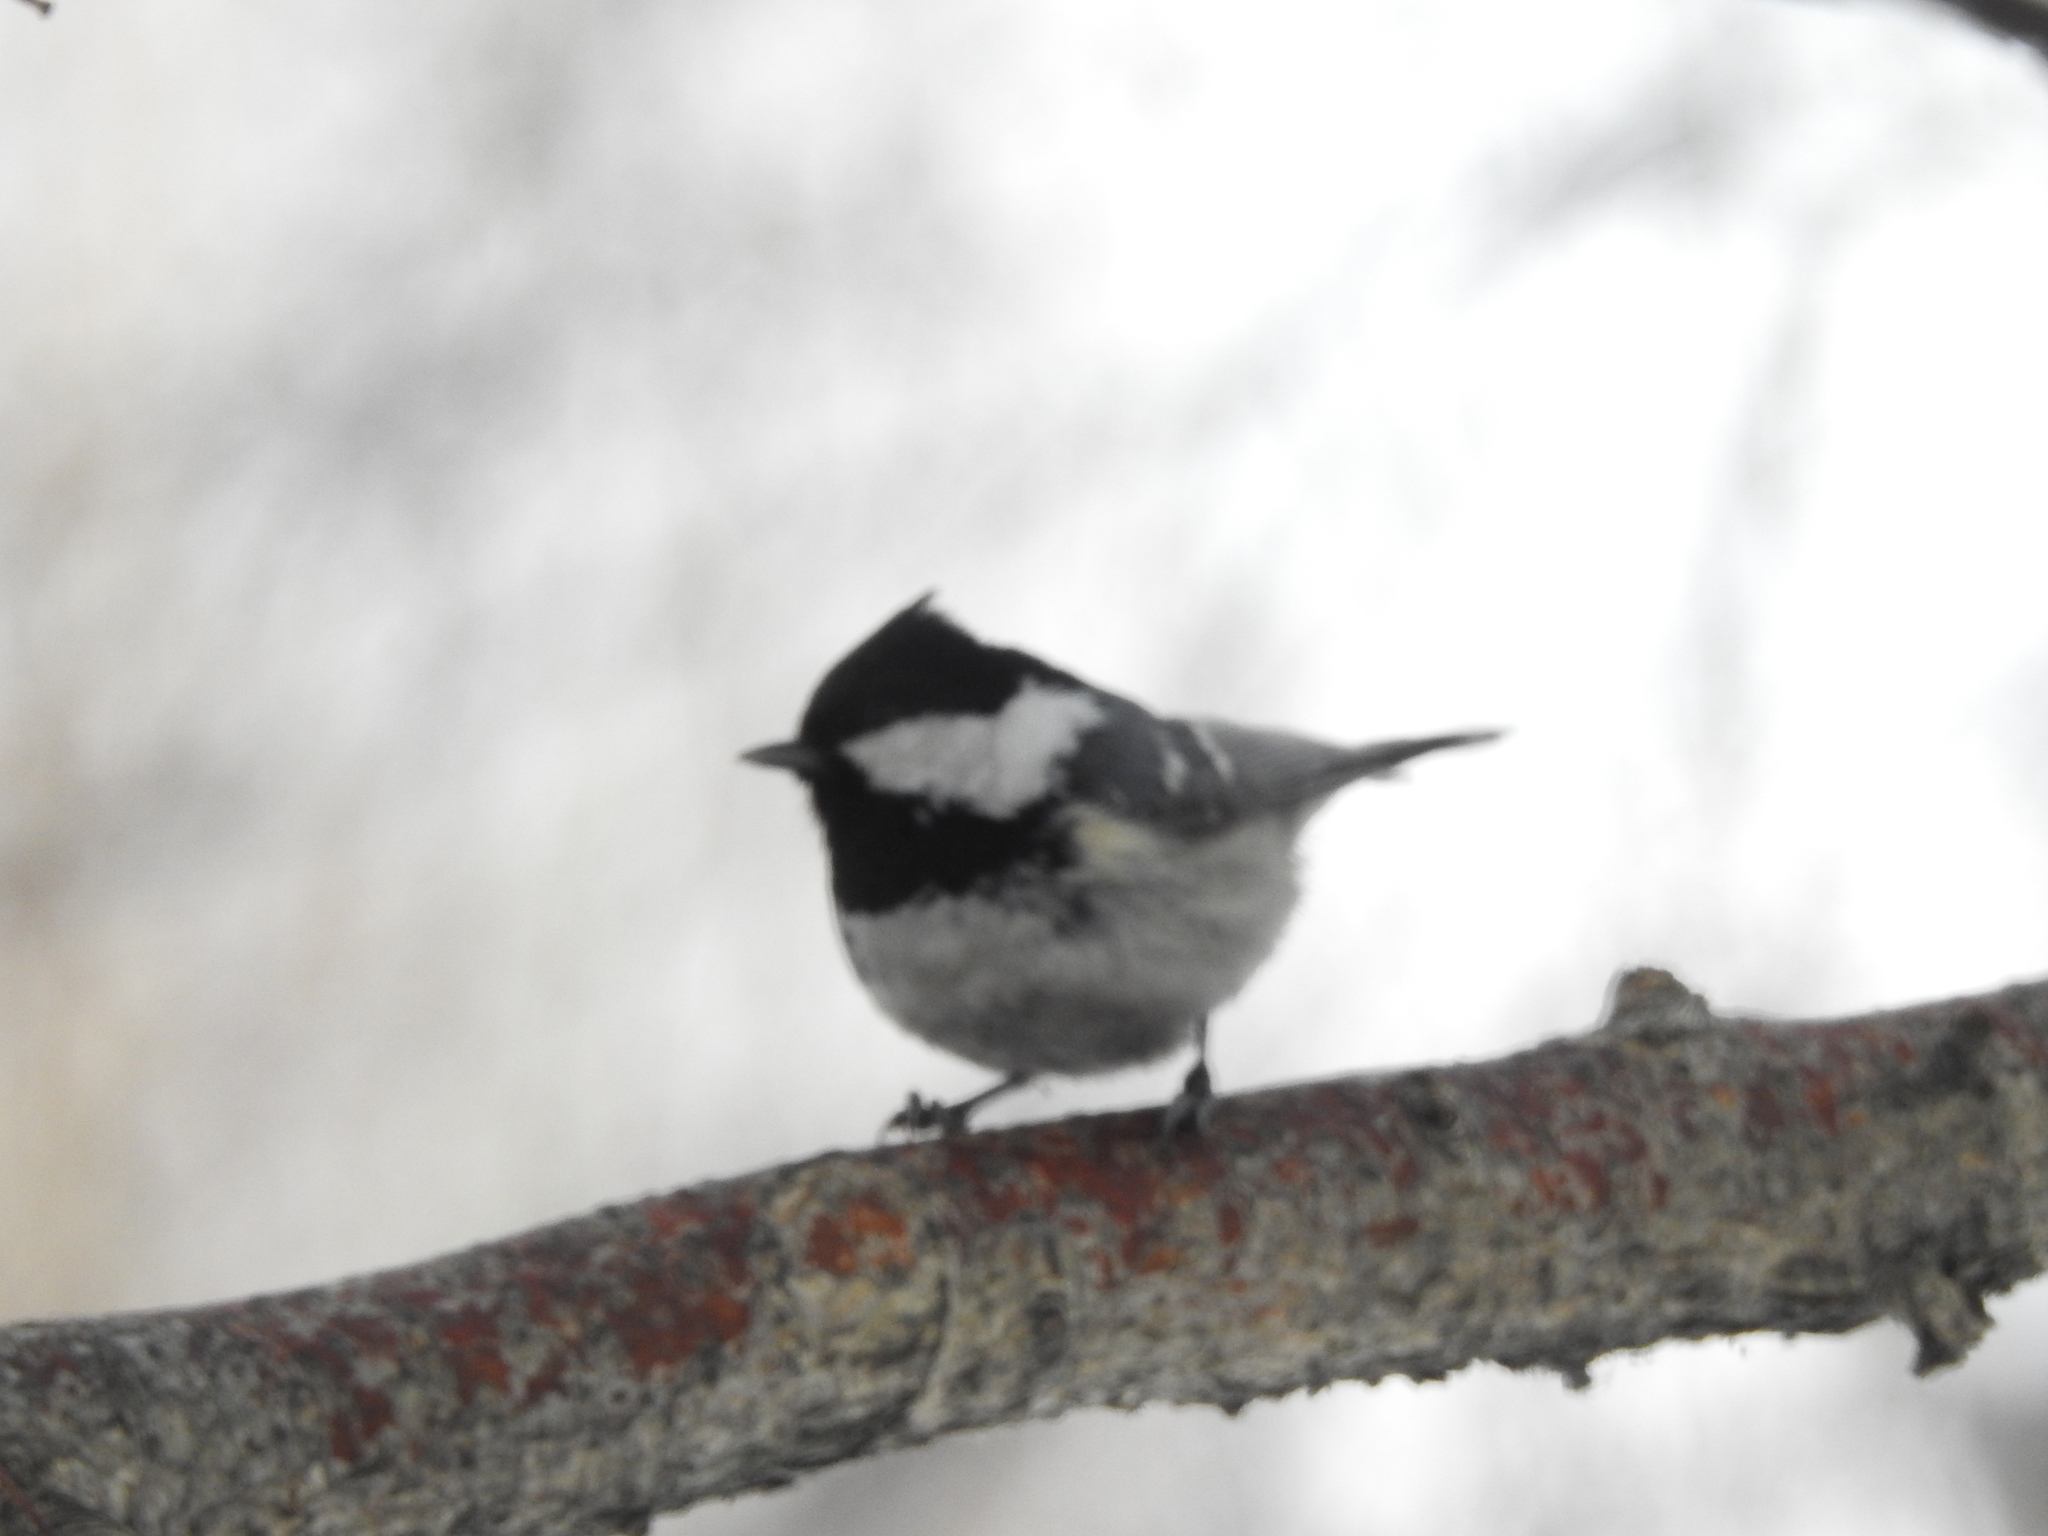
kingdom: Animalia
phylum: Chordata
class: Aves
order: Passeriformes
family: Paridae
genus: Periparus
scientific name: Periparus ater
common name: Coal tit
